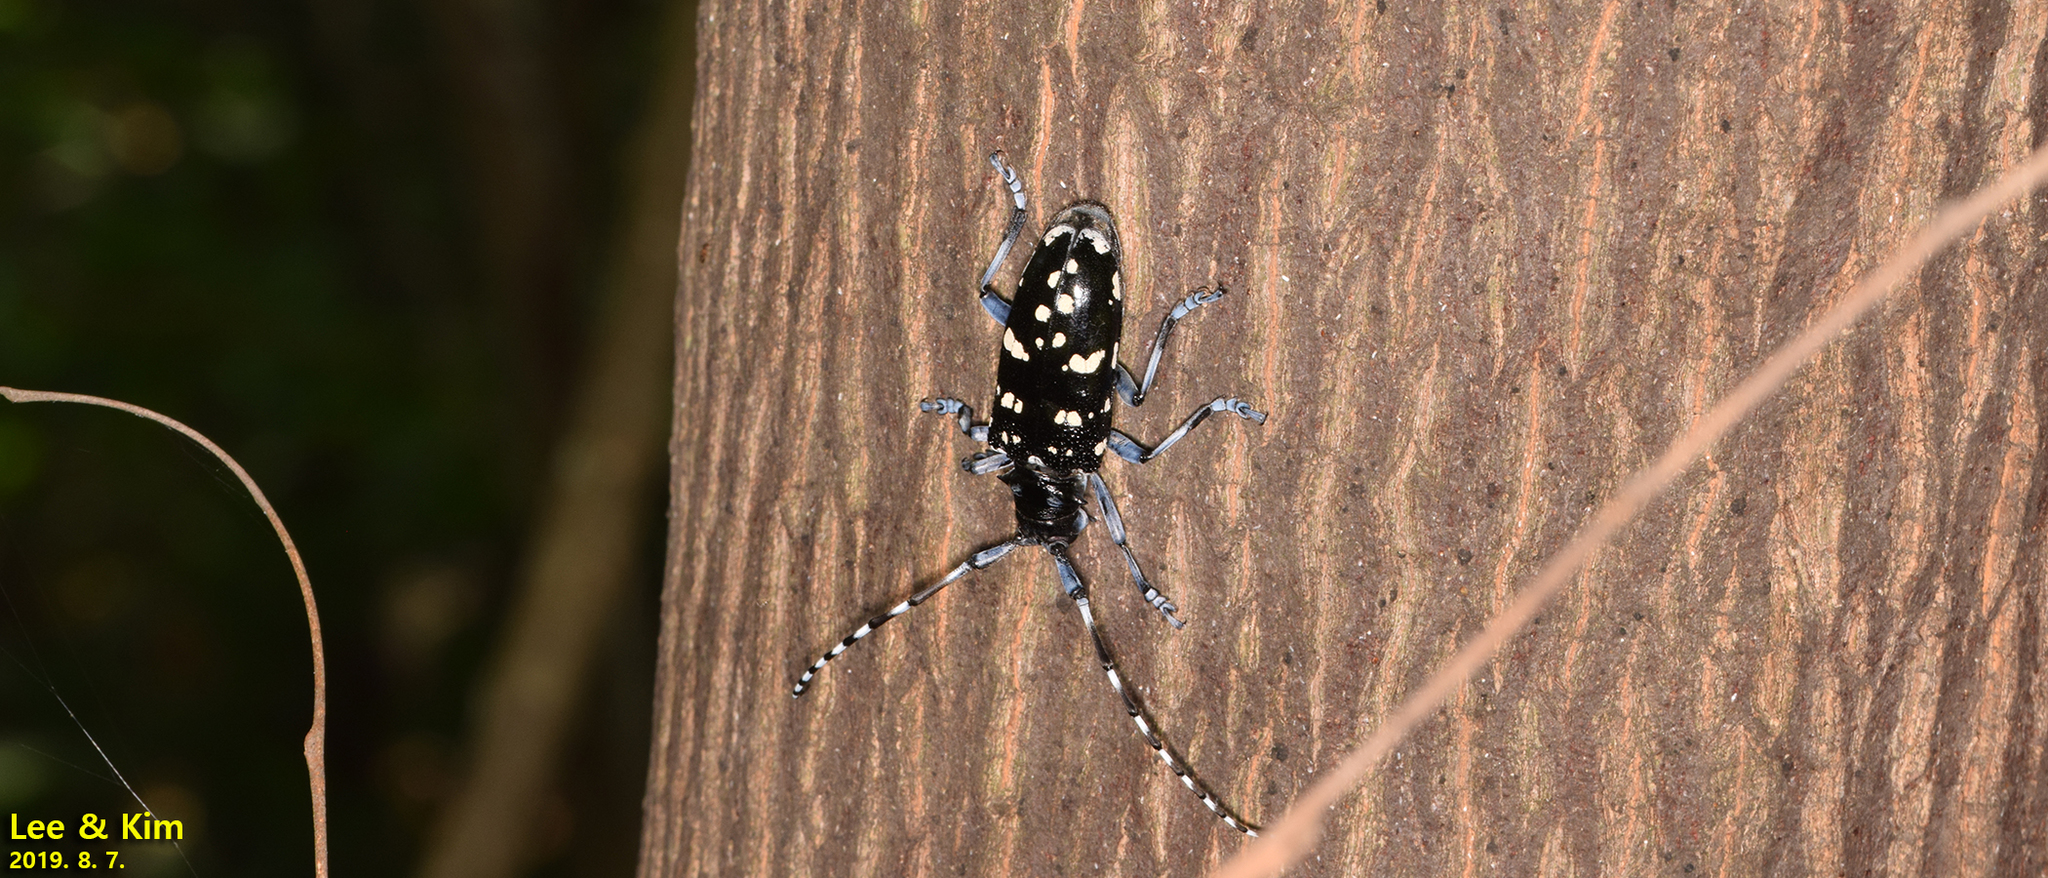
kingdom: Animalia
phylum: Arthropoda
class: Insecta
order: Coleoptera
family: Cerambycidae
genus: Anoplophora
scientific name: Anoplophora chinensis
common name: Citrus longhorned beetle
